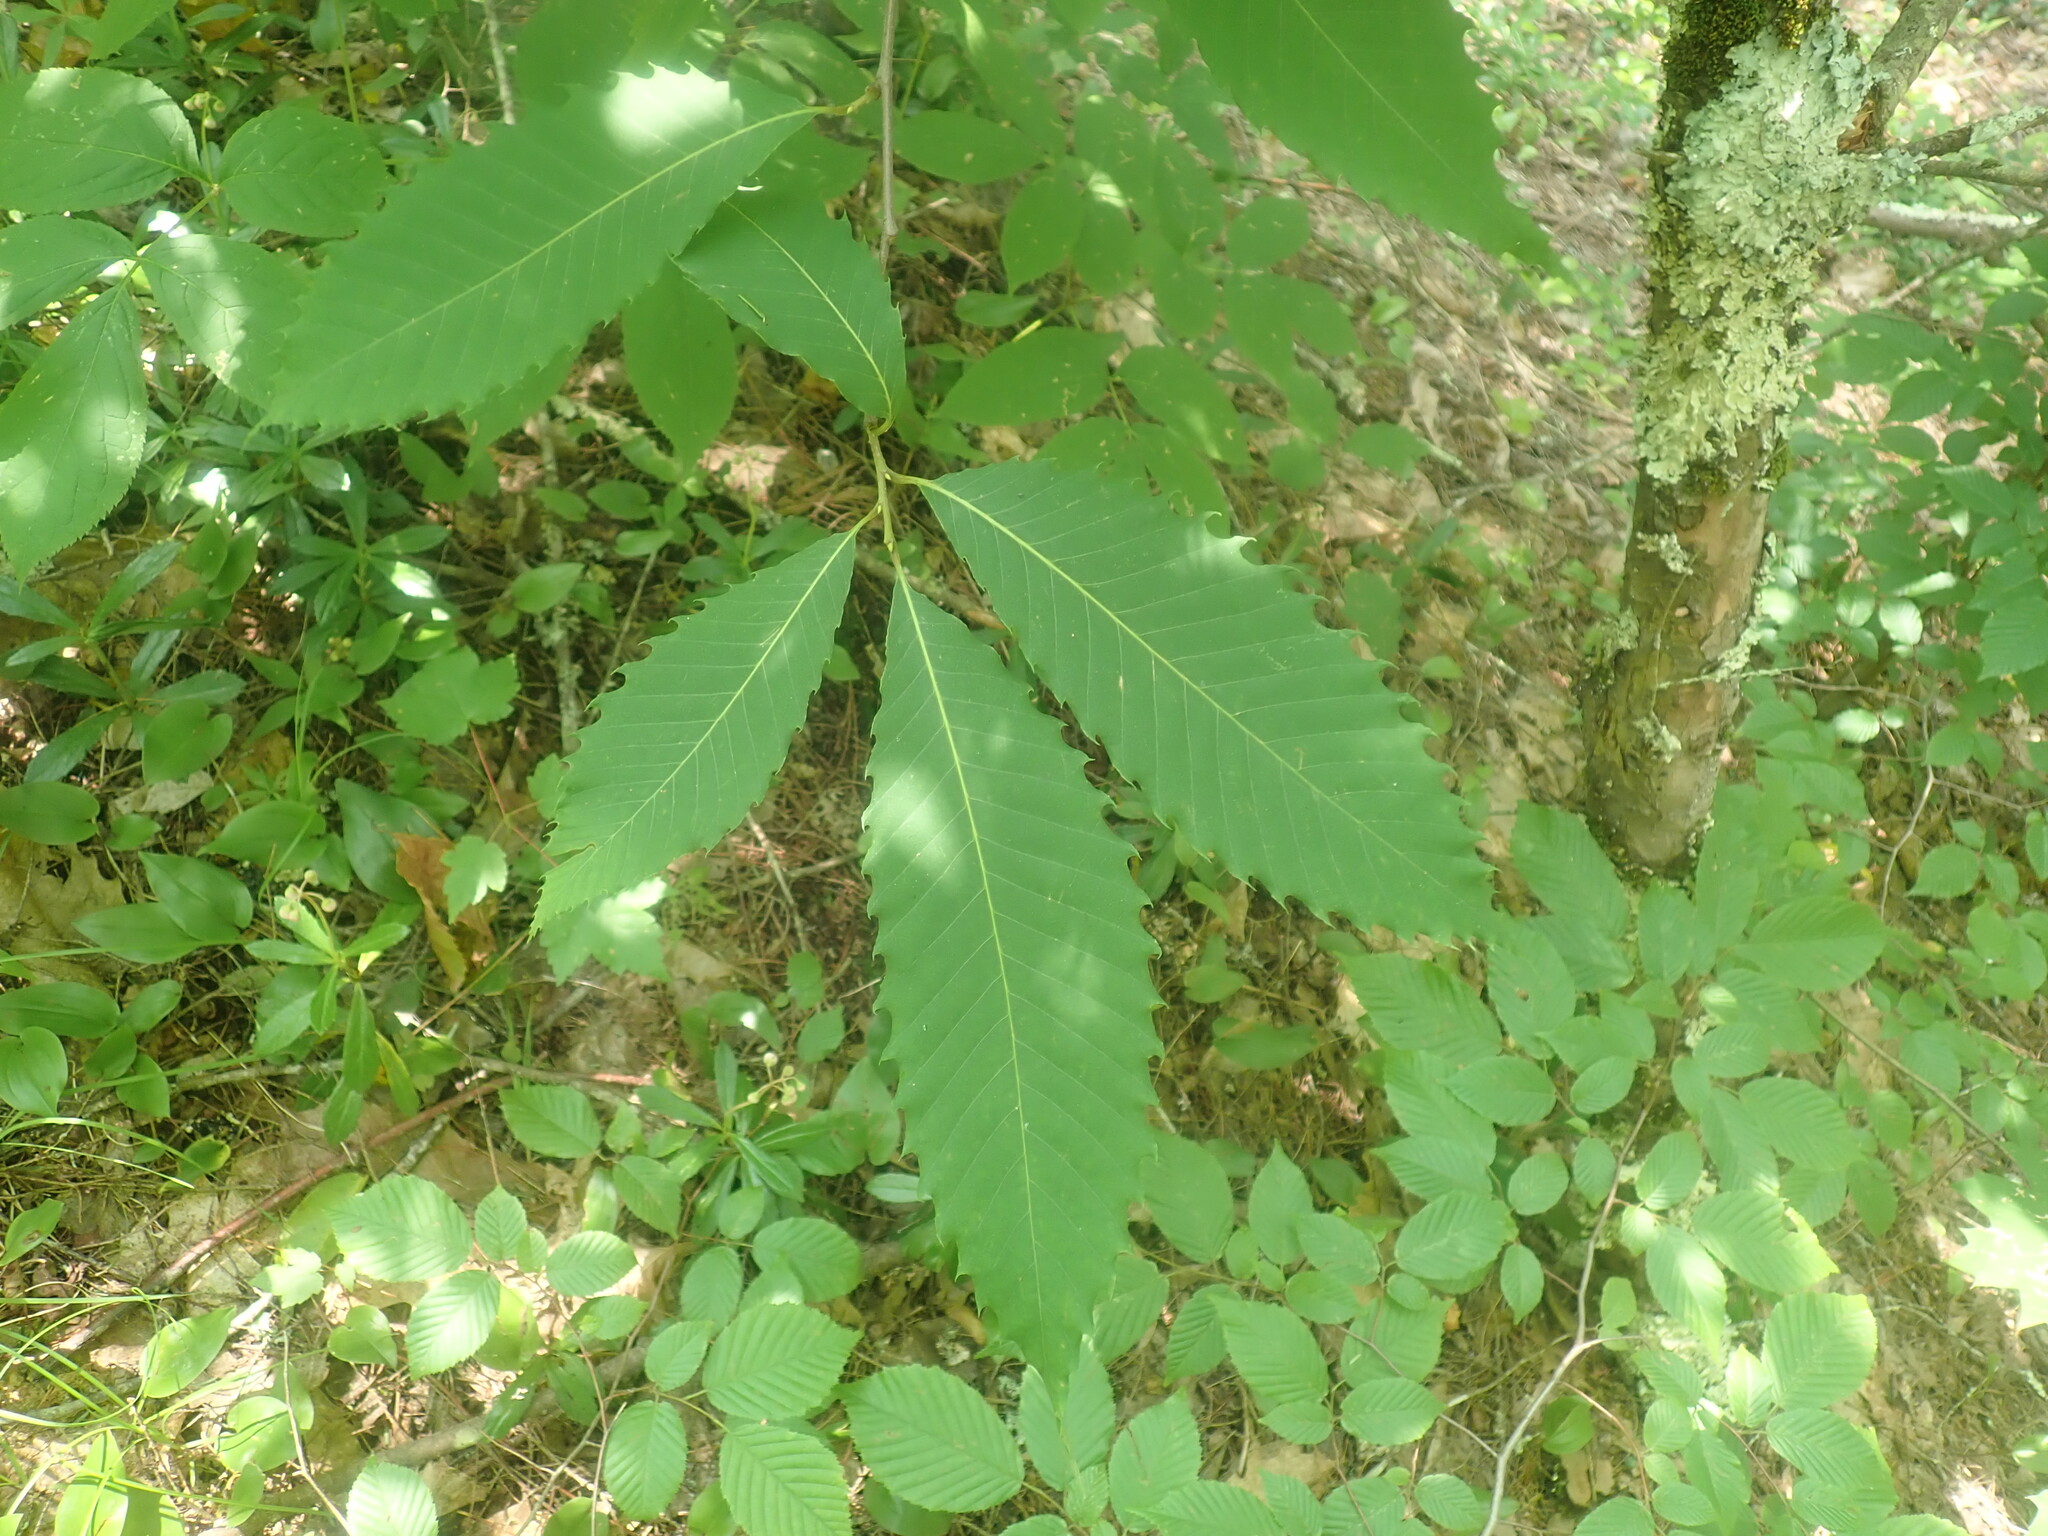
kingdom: Plantae
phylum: Tracheophyta
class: Magnoliopsida
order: Fagales
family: Fagaceae
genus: Castanea
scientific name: Castanea dentata
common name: American chestnut
